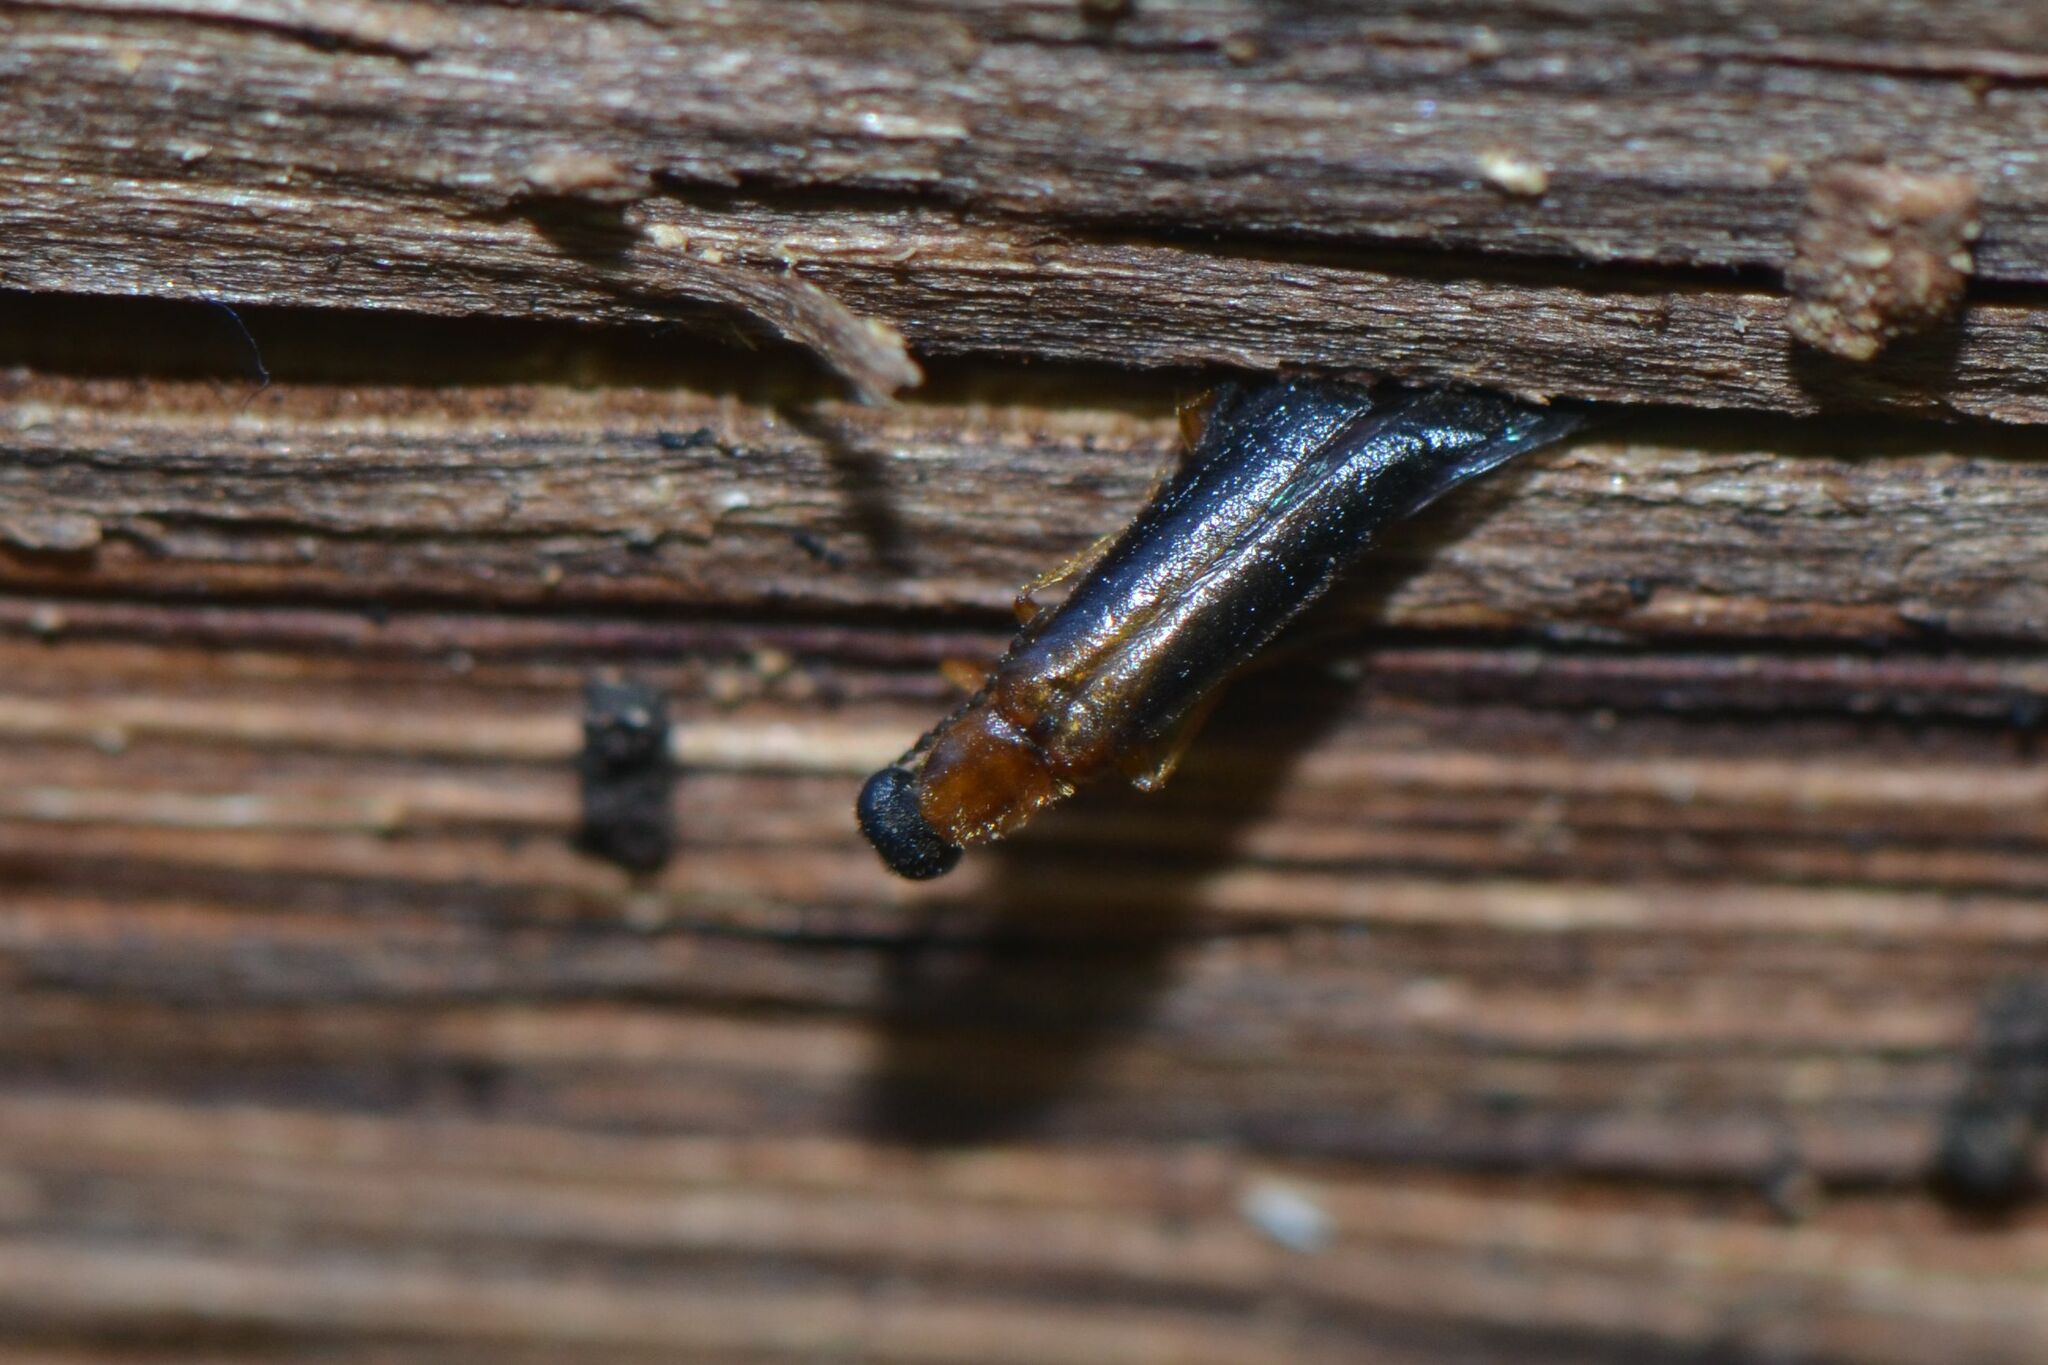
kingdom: Animalia
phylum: Arthropoda
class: Insecta
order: Coleoptera
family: Lymexylidae
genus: Lymexylon
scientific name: Lymexylon navale
